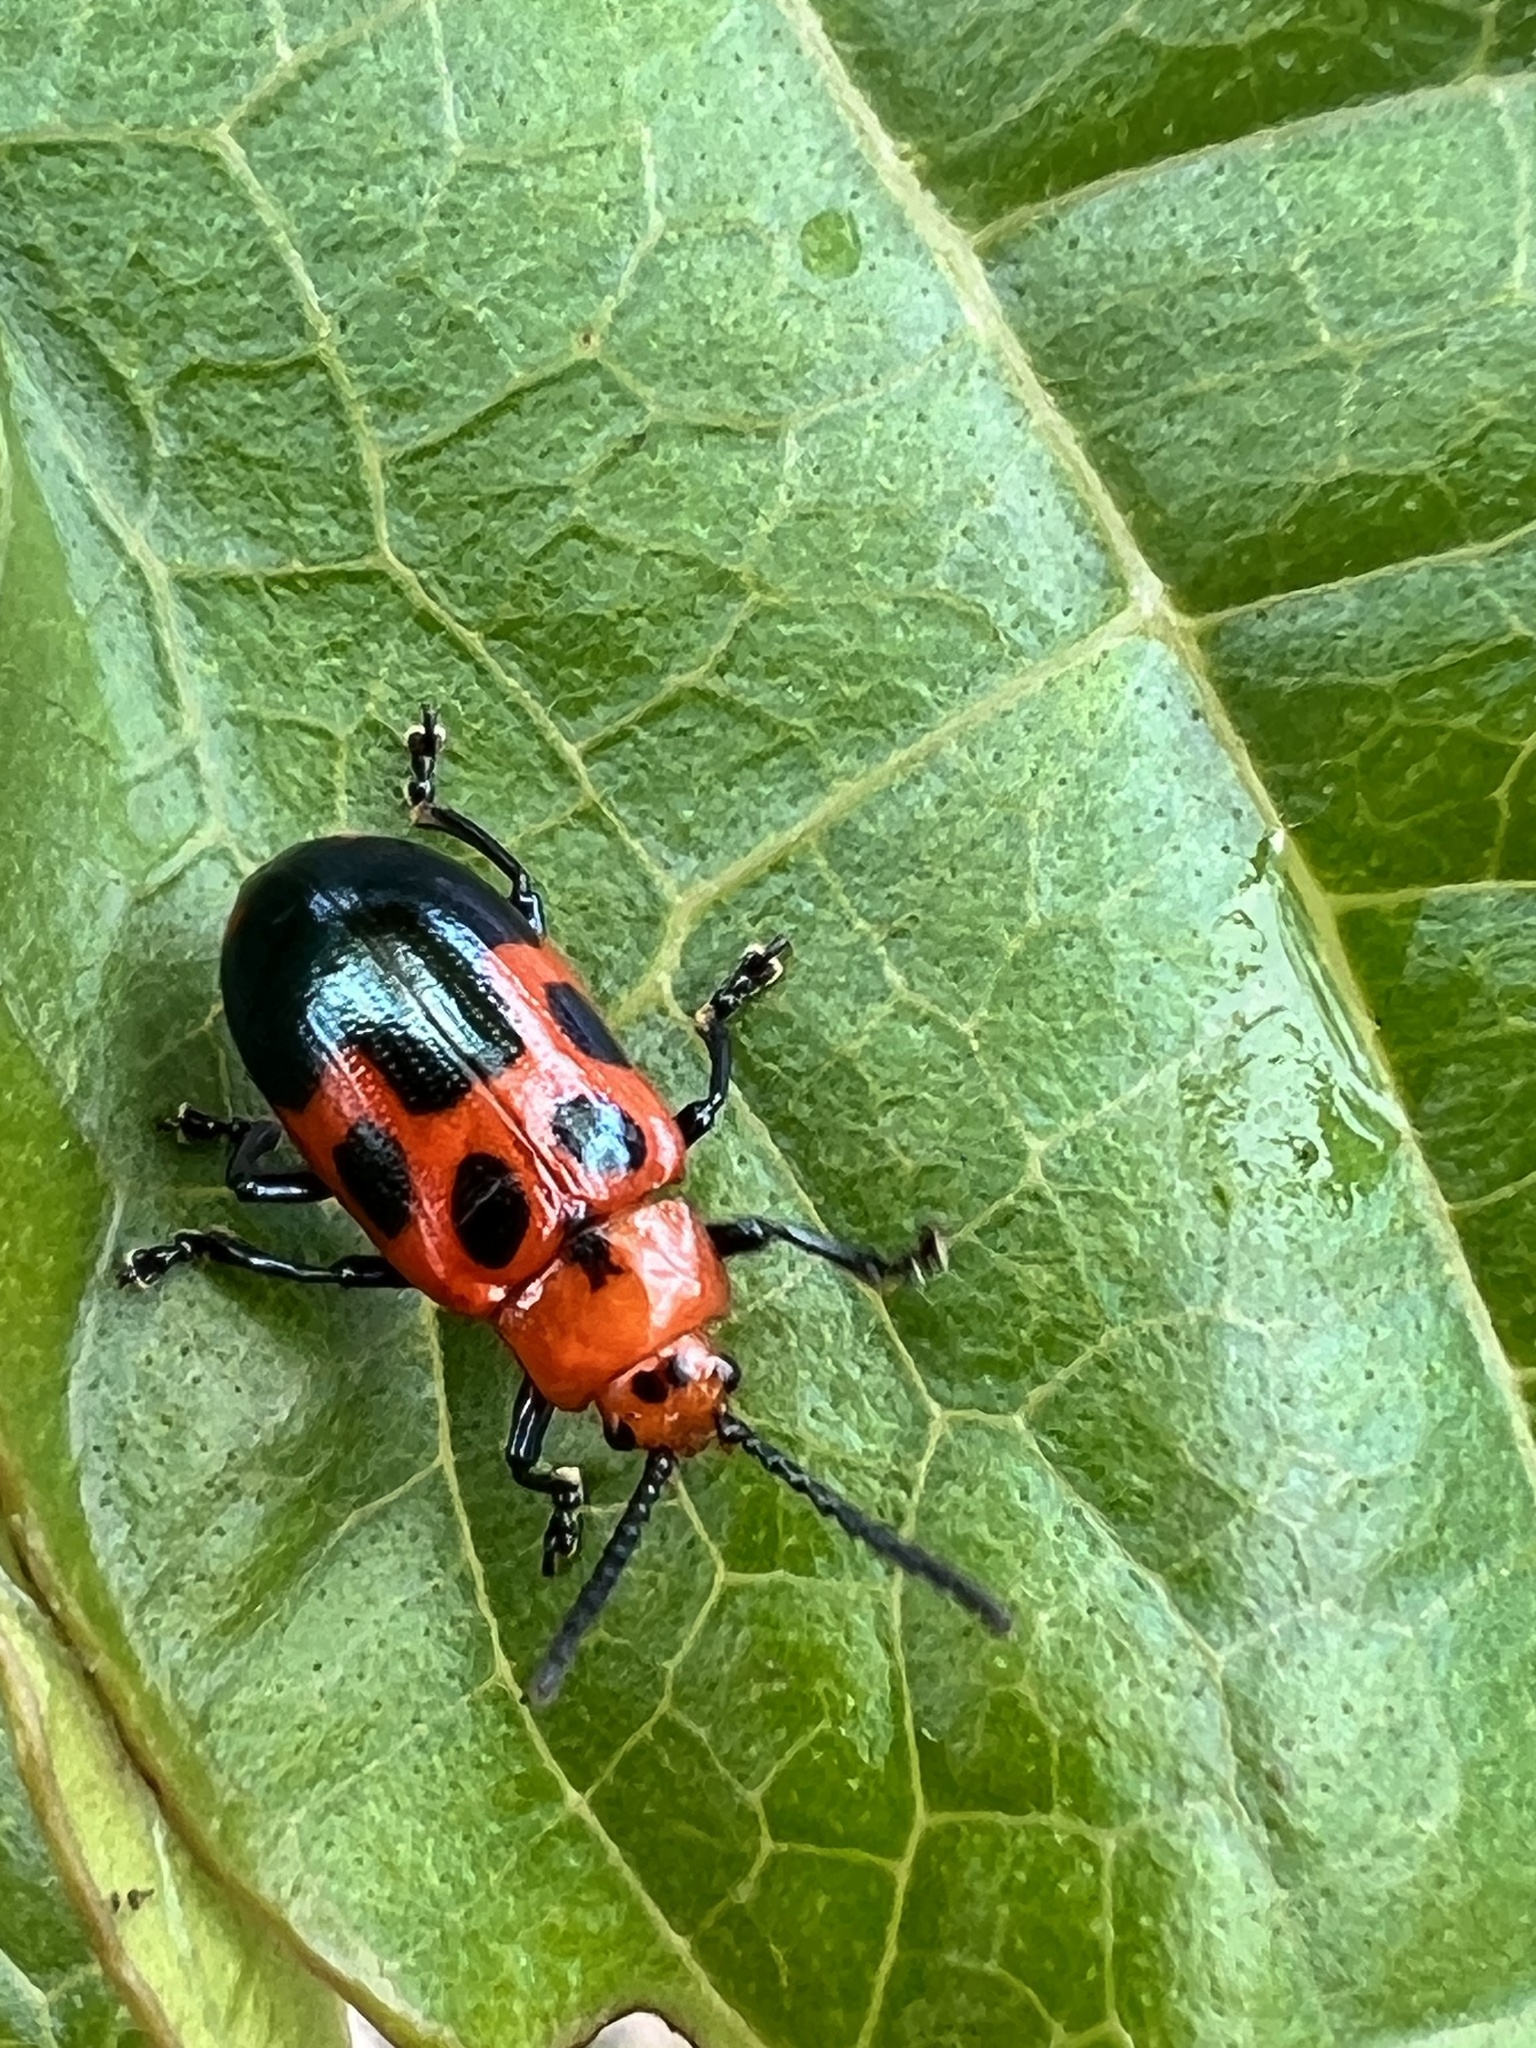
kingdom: Animalia
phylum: Arthropoda
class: Insecta
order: Coleoptera
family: Chrysomelidae
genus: Phyllocharis
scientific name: Phyllocharis
